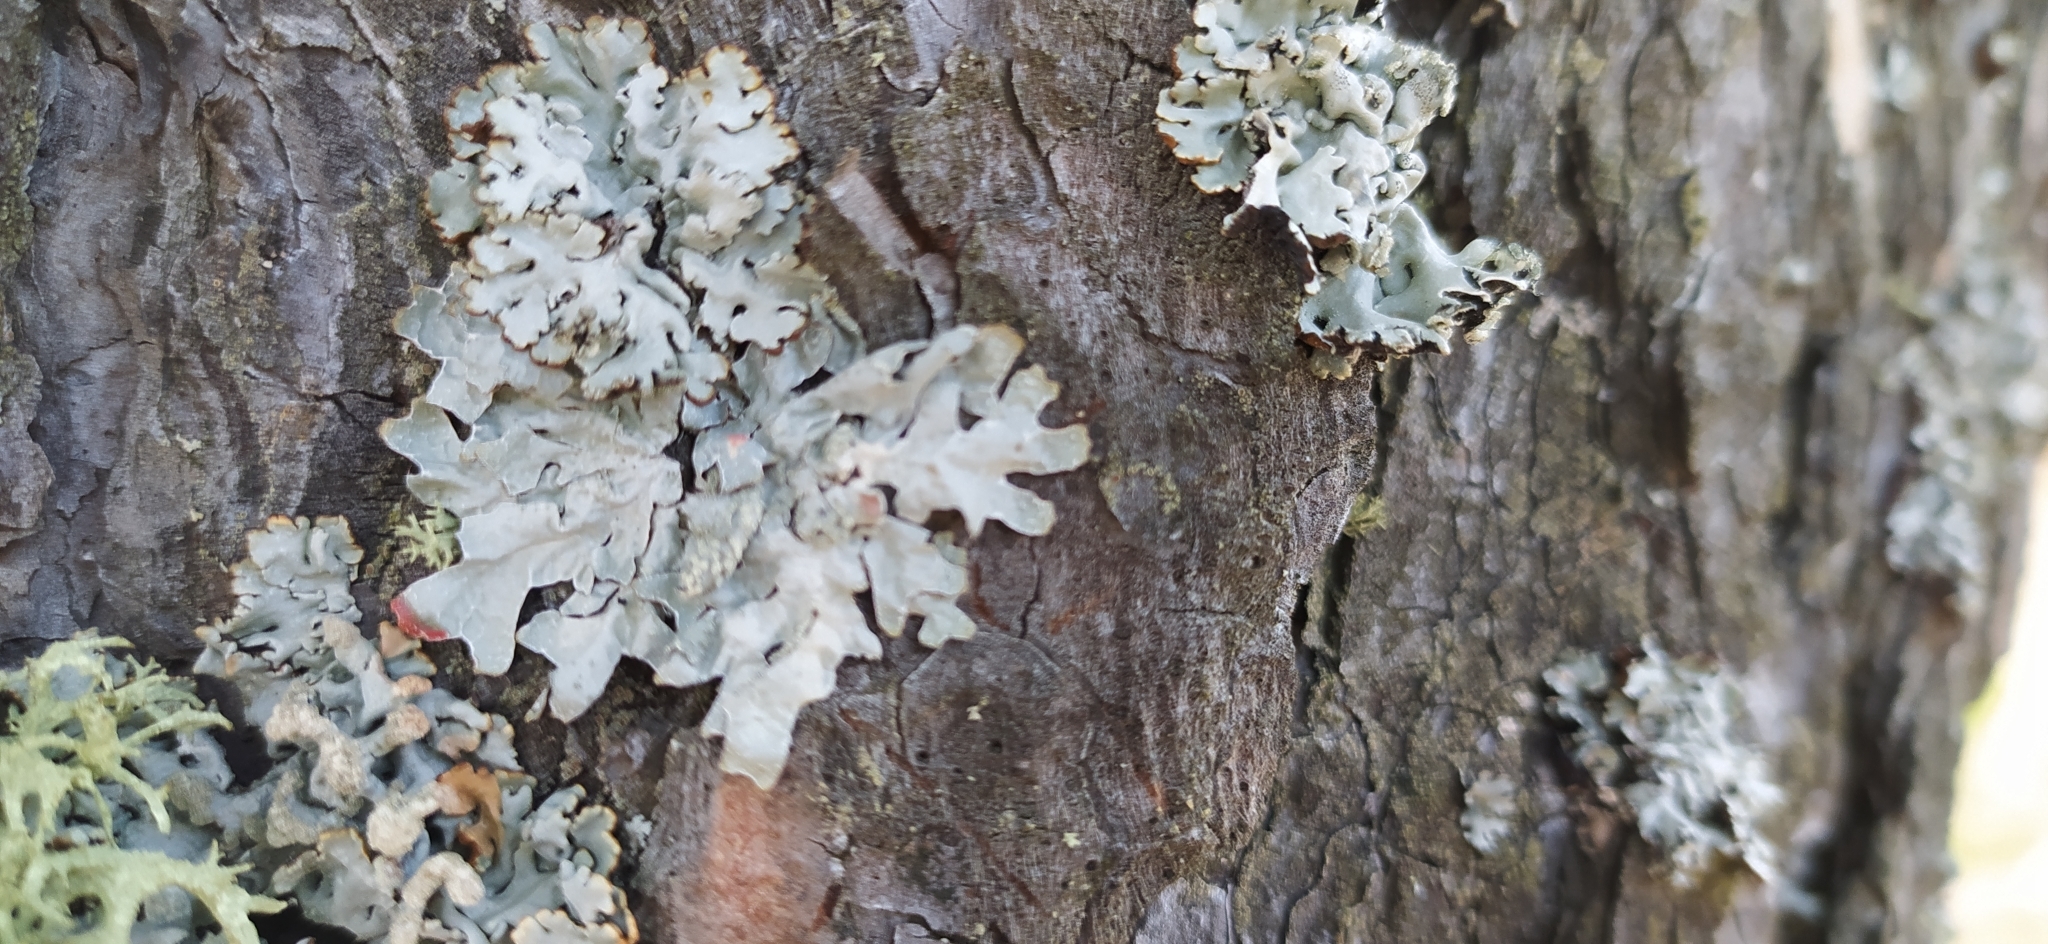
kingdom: Fungi
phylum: Ascomycota
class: Lecanoromycetes
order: Lecanorales
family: Parmeliaceae
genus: Parmelia
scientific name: Parmelia sulcata
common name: Netted shield lichen
